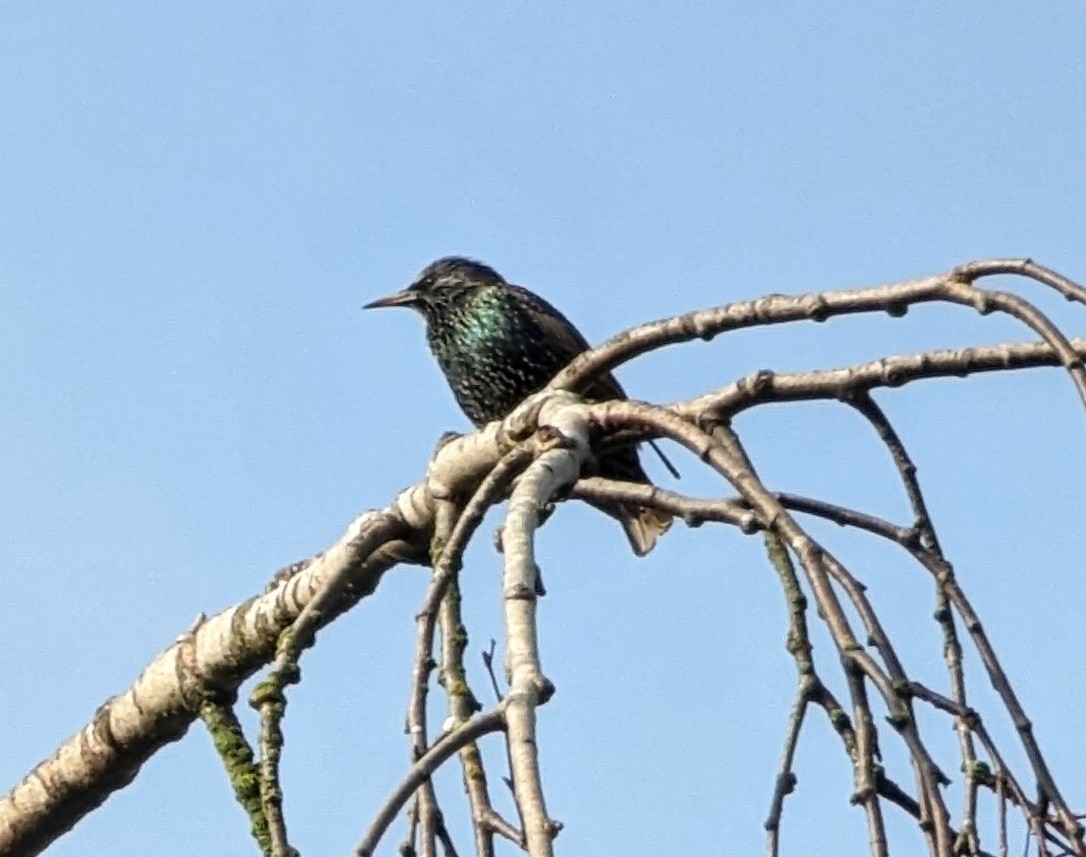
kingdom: Animalia
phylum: Chordata
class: Aves
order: Passeriformes
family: Sturnidae
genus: Sturnus
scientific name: Sturnus vulgaris
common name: Common starling
